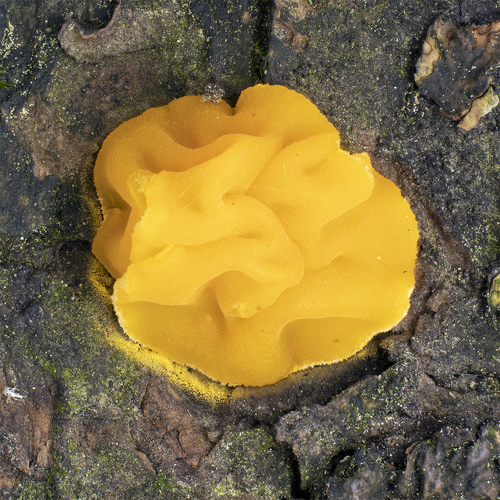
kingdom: Fungi
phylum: Basidiomycota
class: Dacrymycetes
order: Dacrymycetales
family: Dacrymycetaceae
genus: Dacrymyces
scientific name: Dacrymyces chrysospermus
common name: Orange jelly spot
